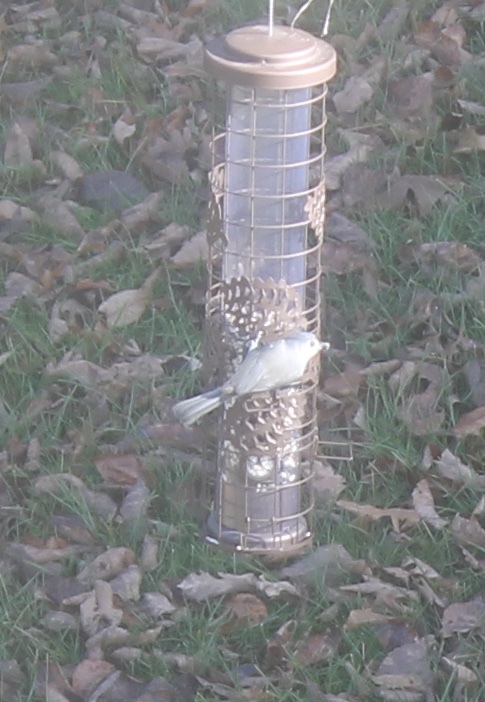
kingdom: Animalia
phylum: Chordata
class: Aves
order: Passeriformes
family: Paridae
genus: Baeolophus
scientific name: Baeolophus bicolor
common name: Tufted titmouse
